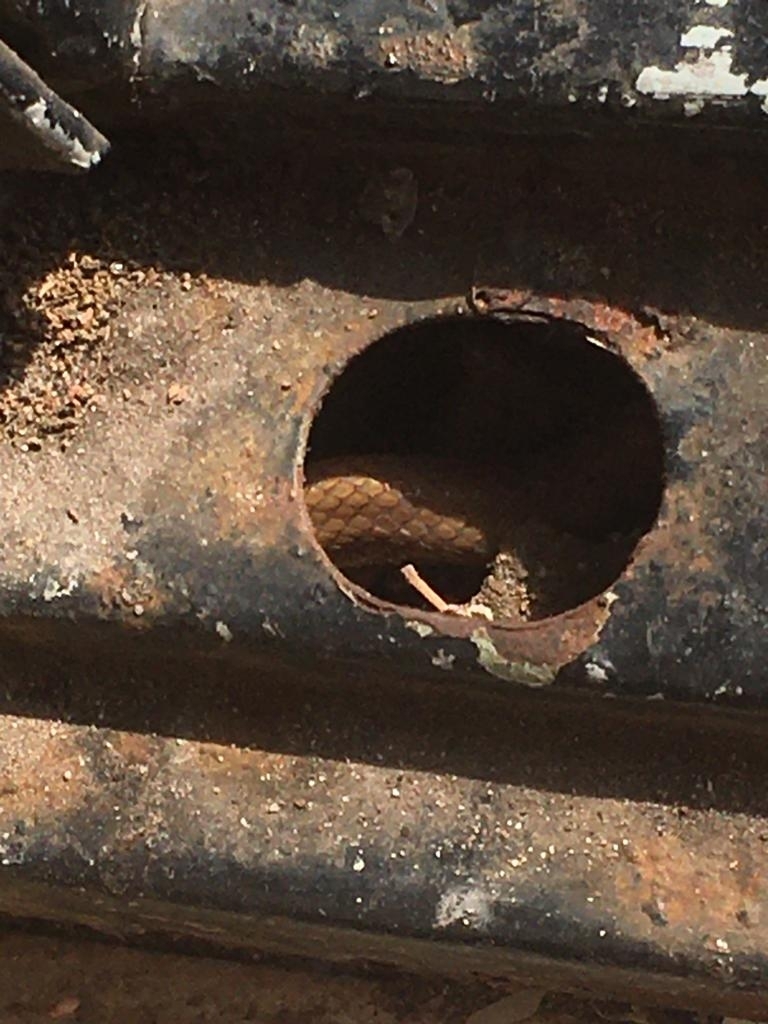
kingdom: Animalia
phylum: Chordata
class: Squamata
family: Colubridae
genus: Lycodon
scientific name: Lycodon fasciolatus
